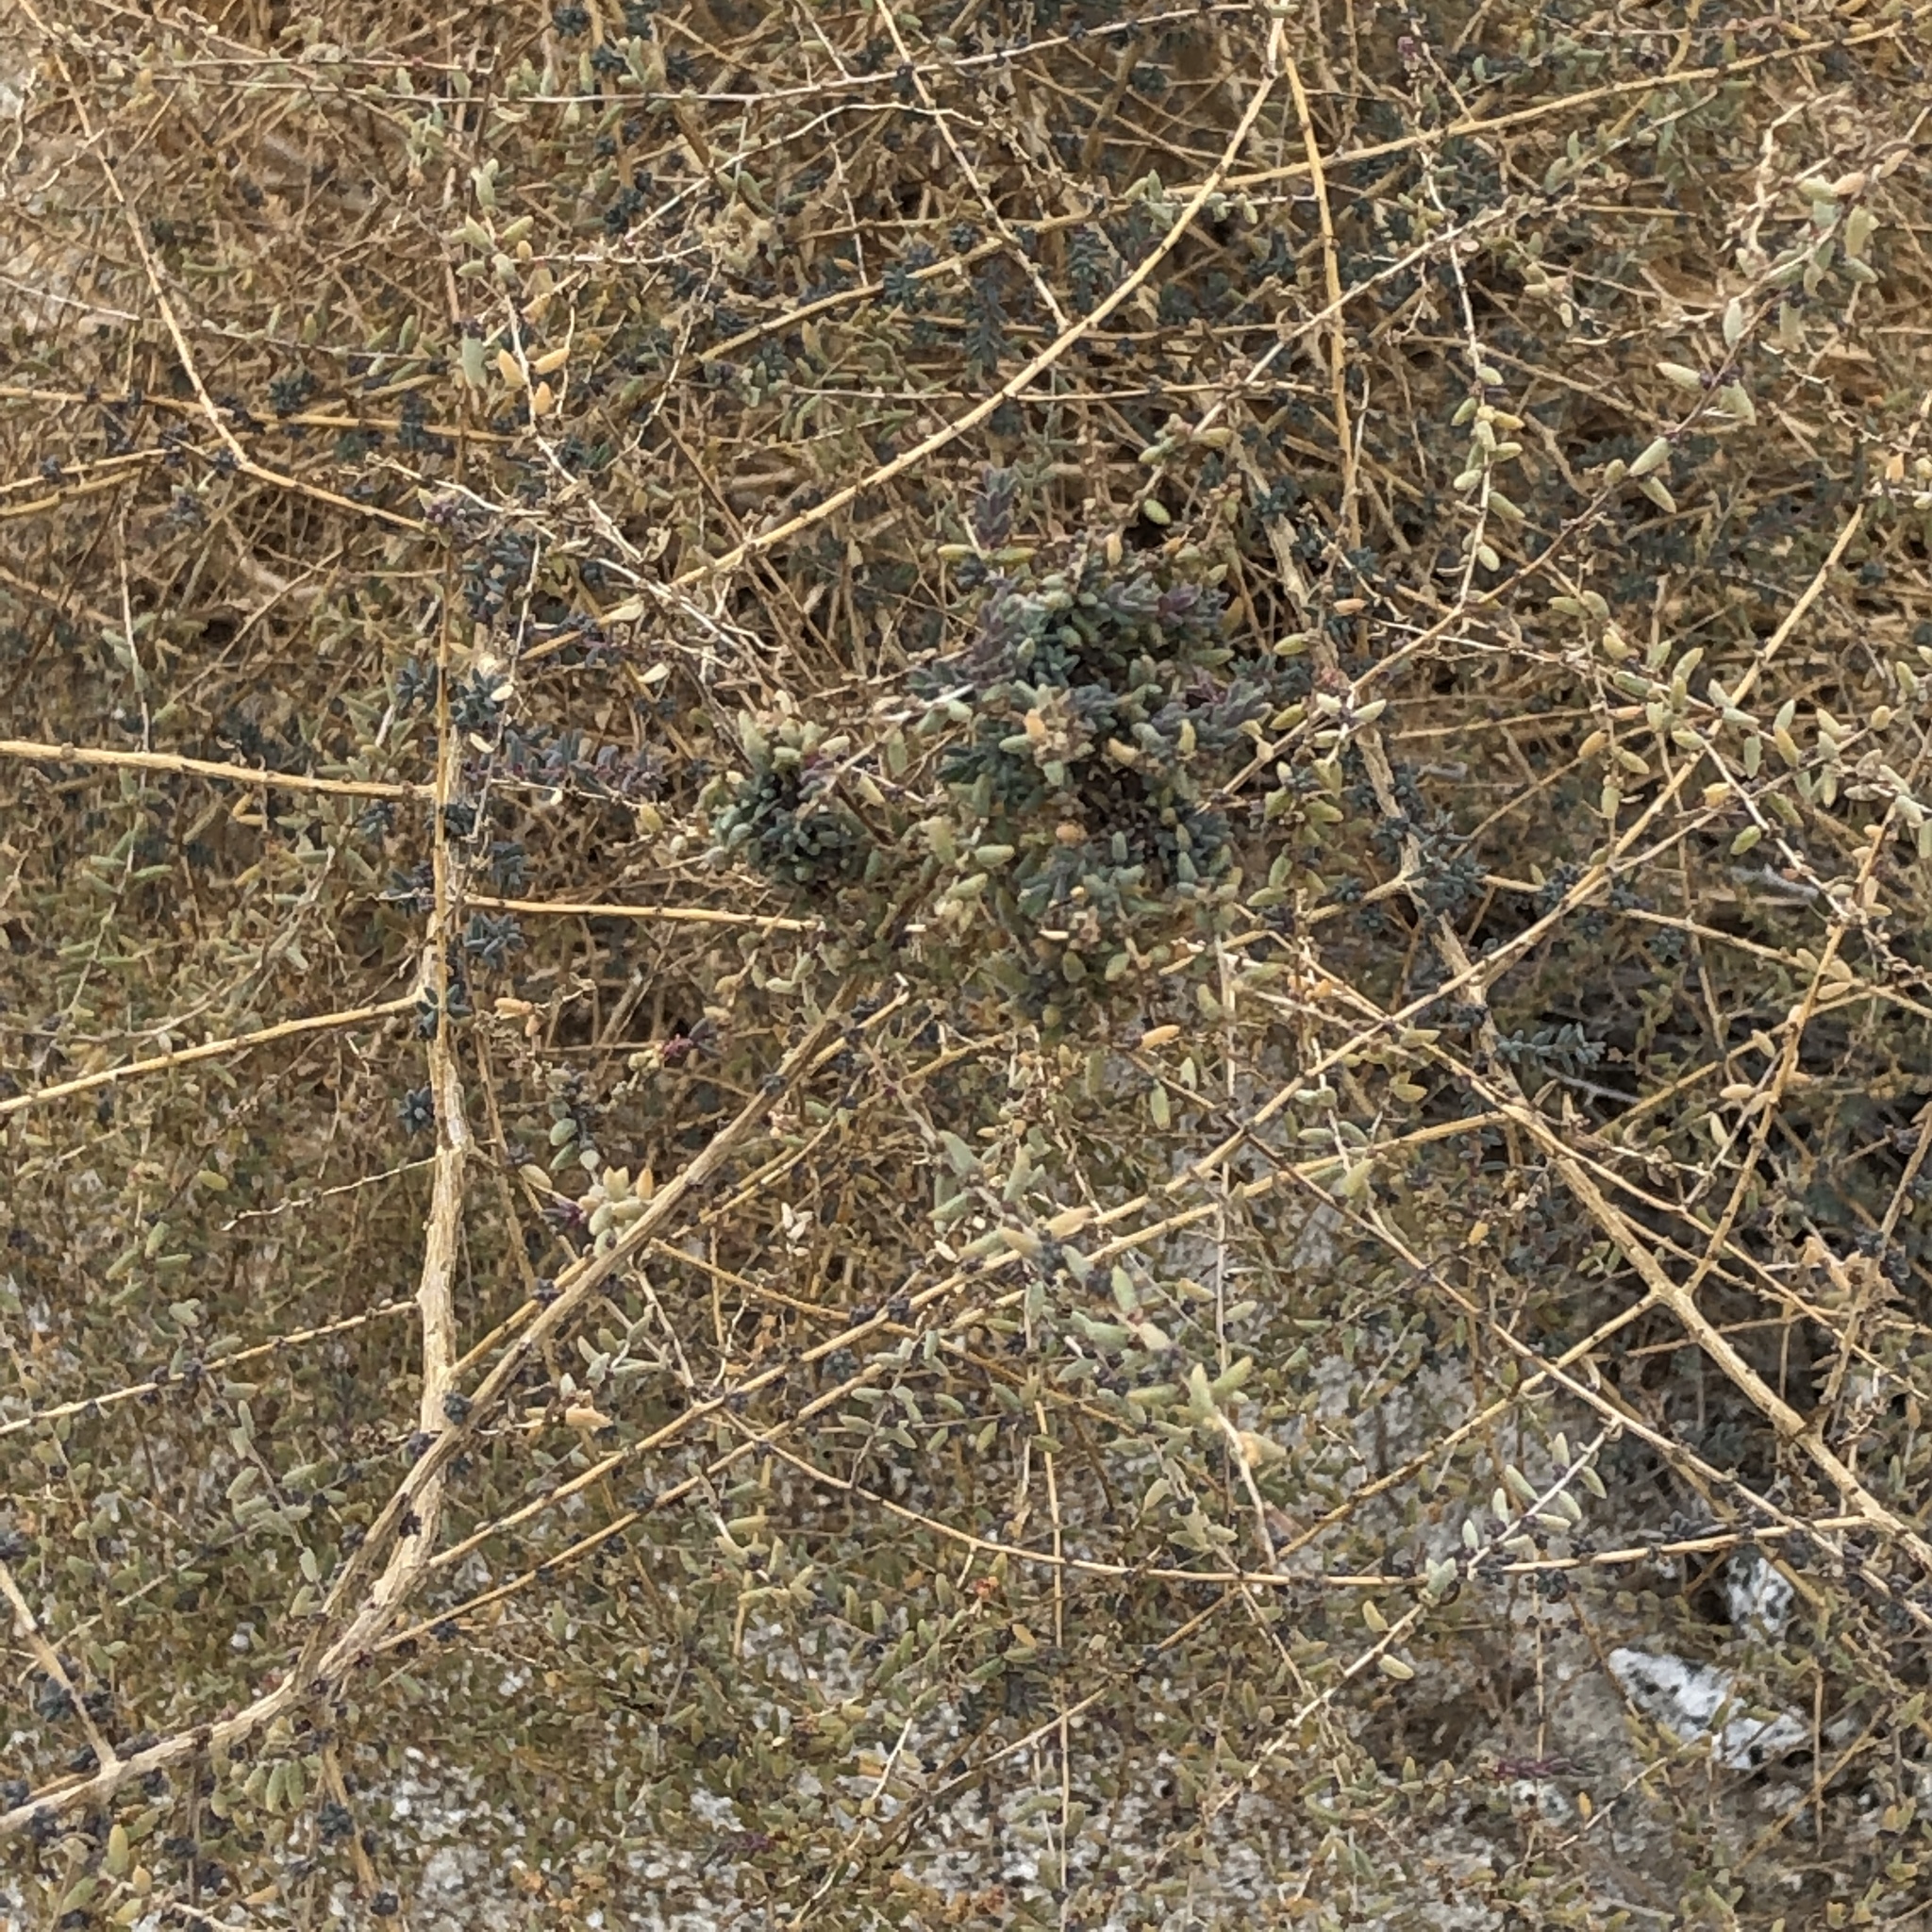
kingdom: Plantae
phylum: Tracheophyta
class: Magnoliopsida
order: Caryophyllales
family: Amaranthaceae
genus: Suaeda
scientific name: Suaeda nigra
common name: Bush seepweed
